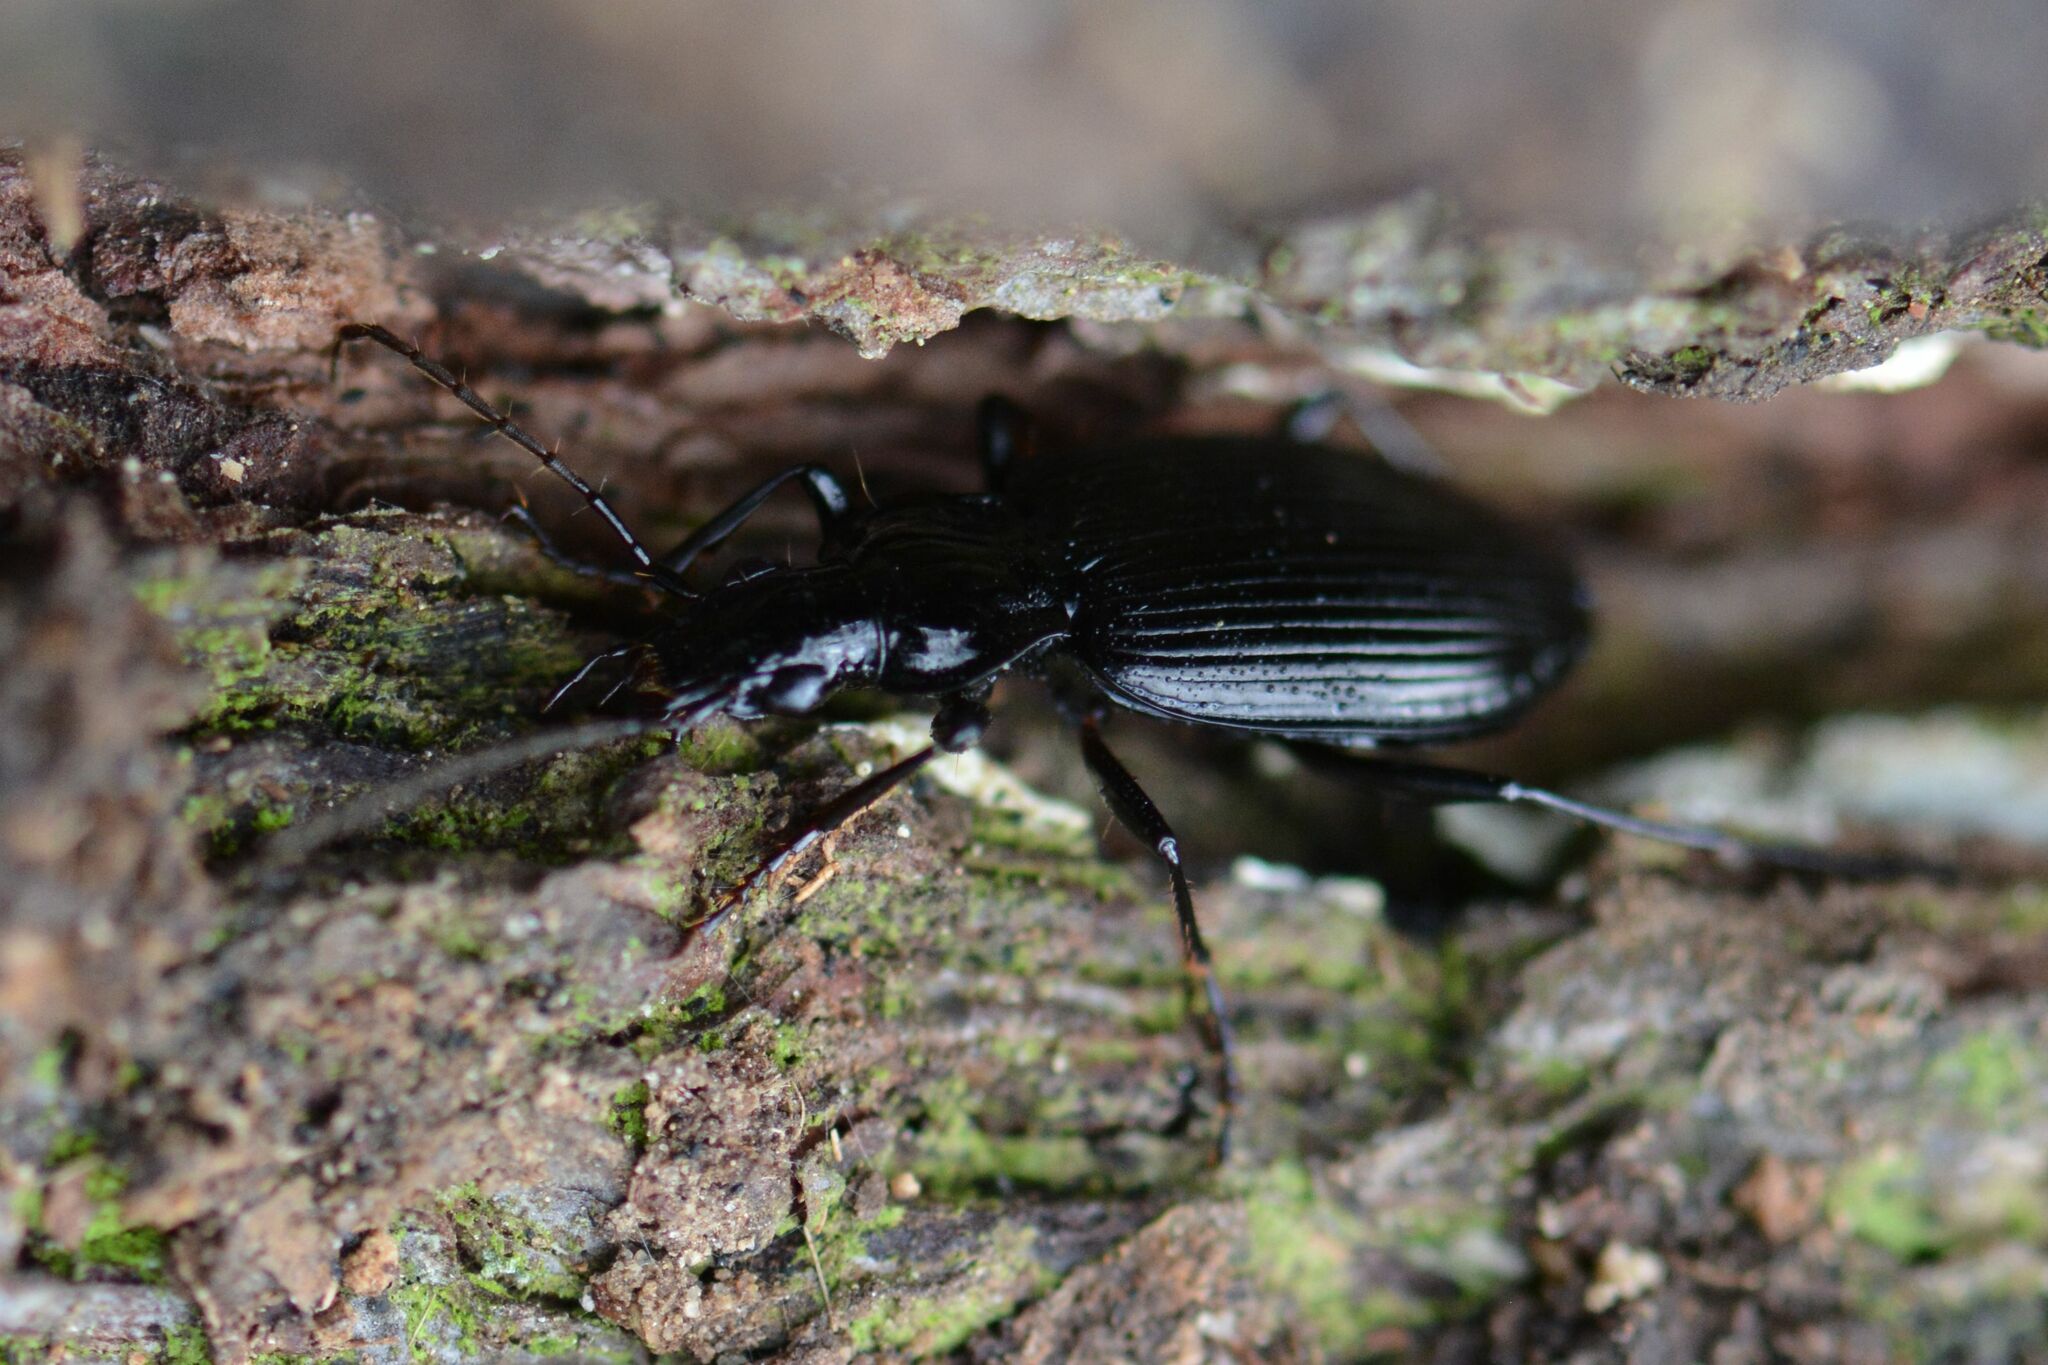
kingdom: Animalia
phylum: Arthropoda
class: Insecta
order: Coleoptera
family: Carabidae
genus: Platynus
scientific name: Platynus assimilis
